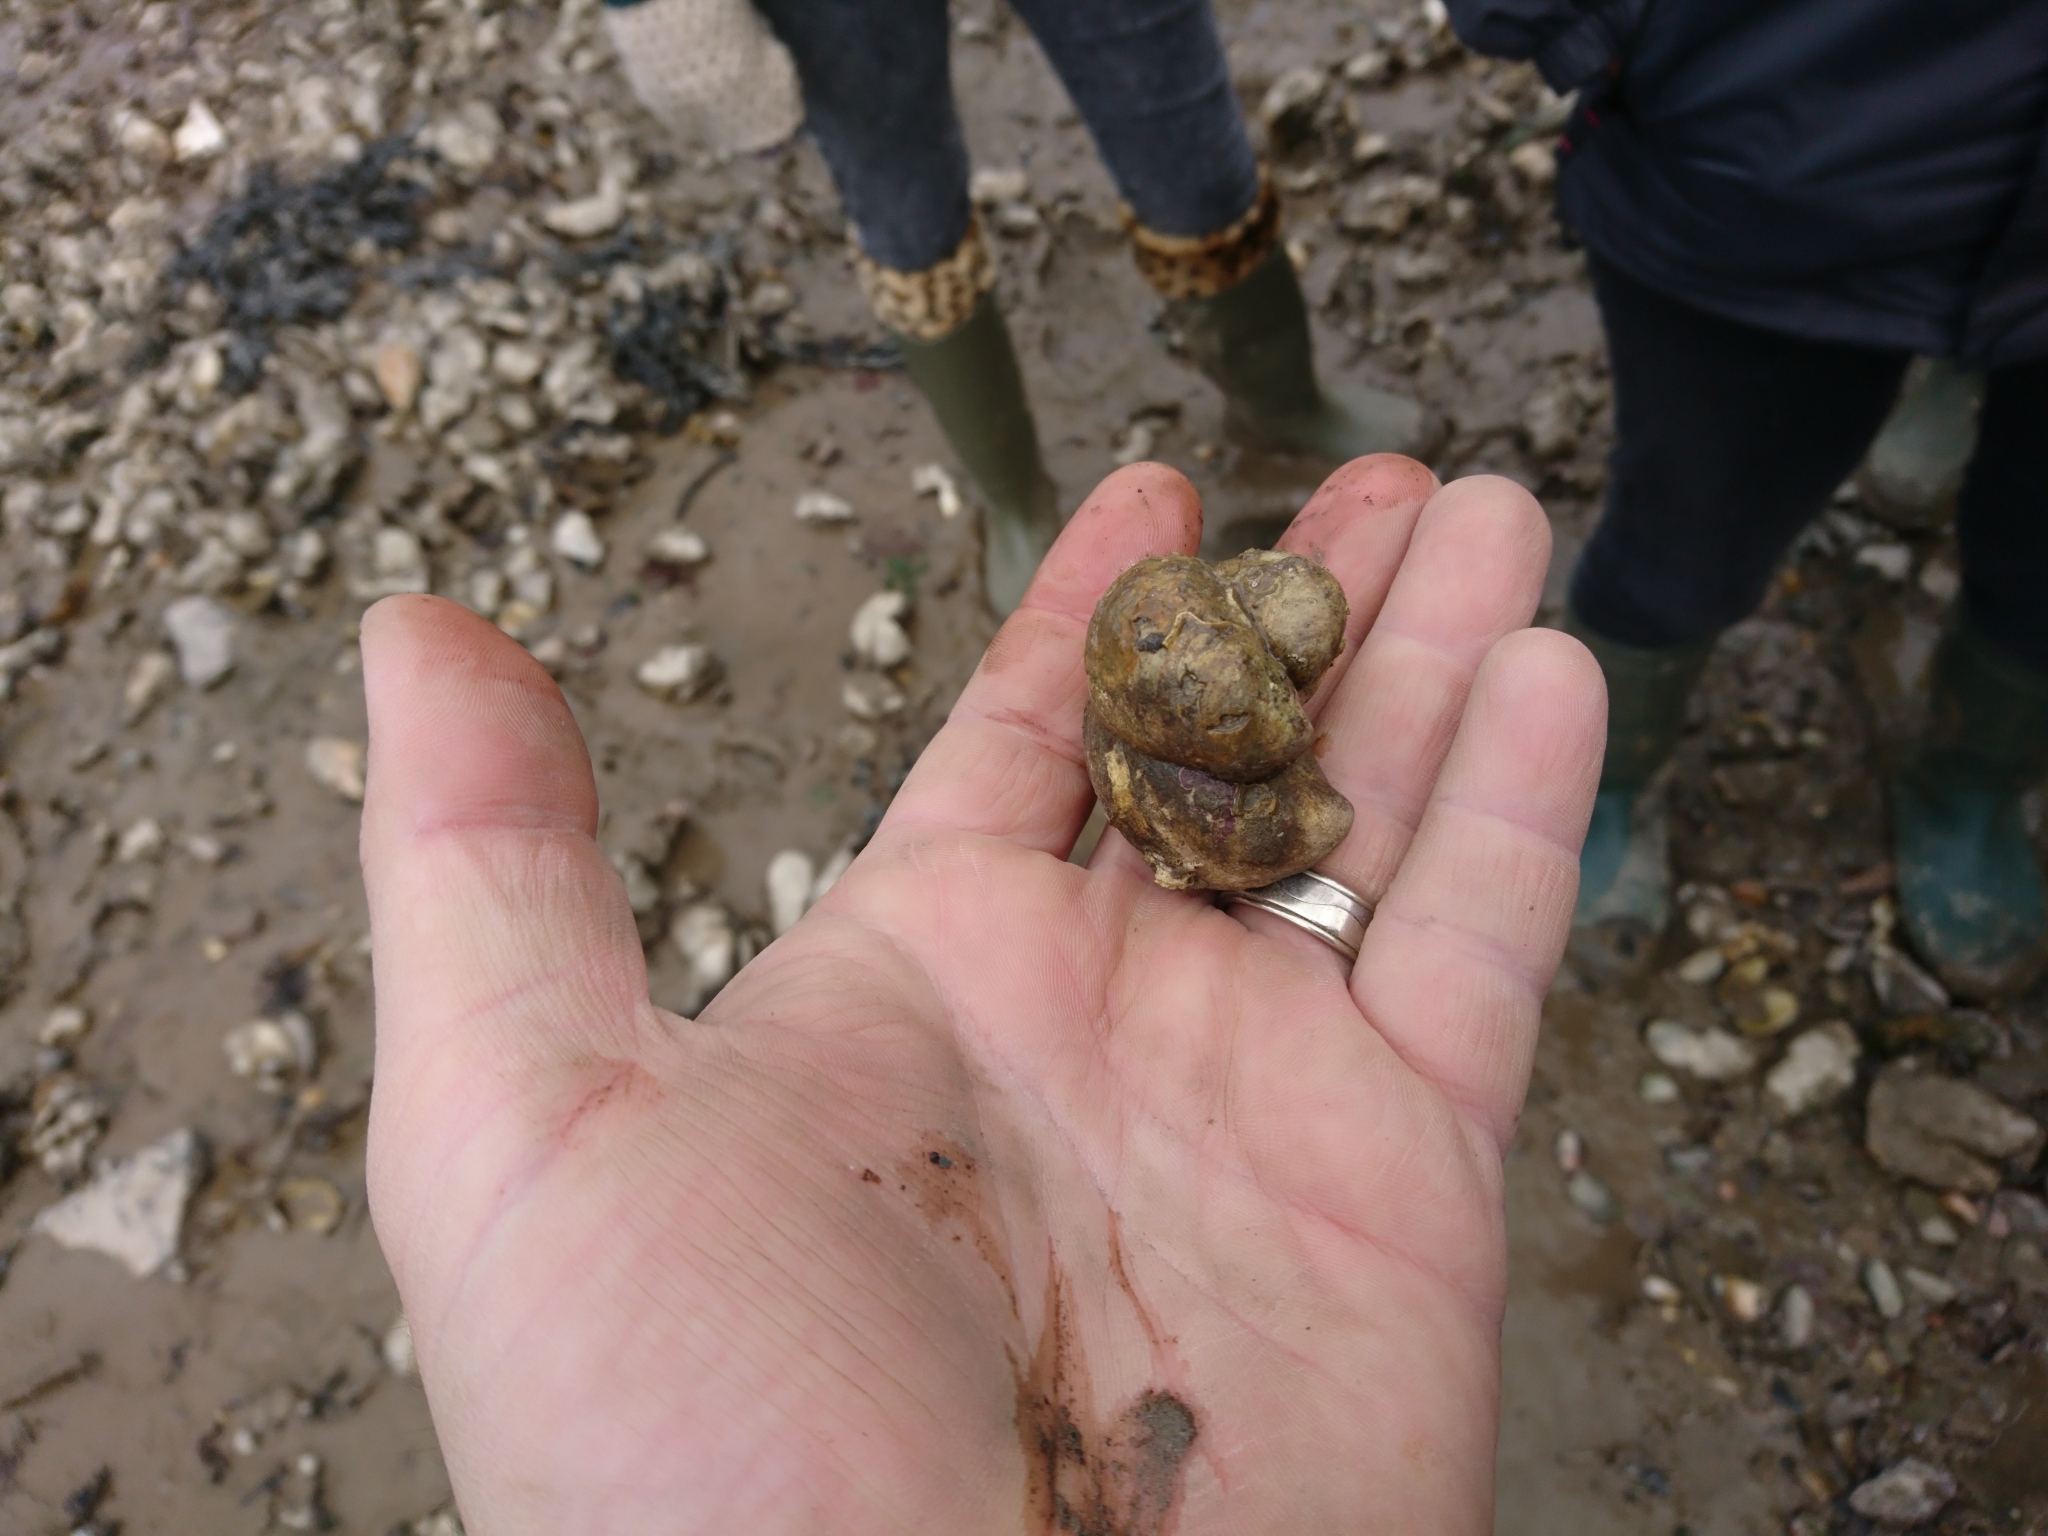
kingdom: Animalia
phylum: Mollusca
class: Gastropoda
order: Littorinimorpha
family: Calyptraeidae
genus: Crepidula
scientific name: Crepidula fornicata
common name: Slipper limpet
